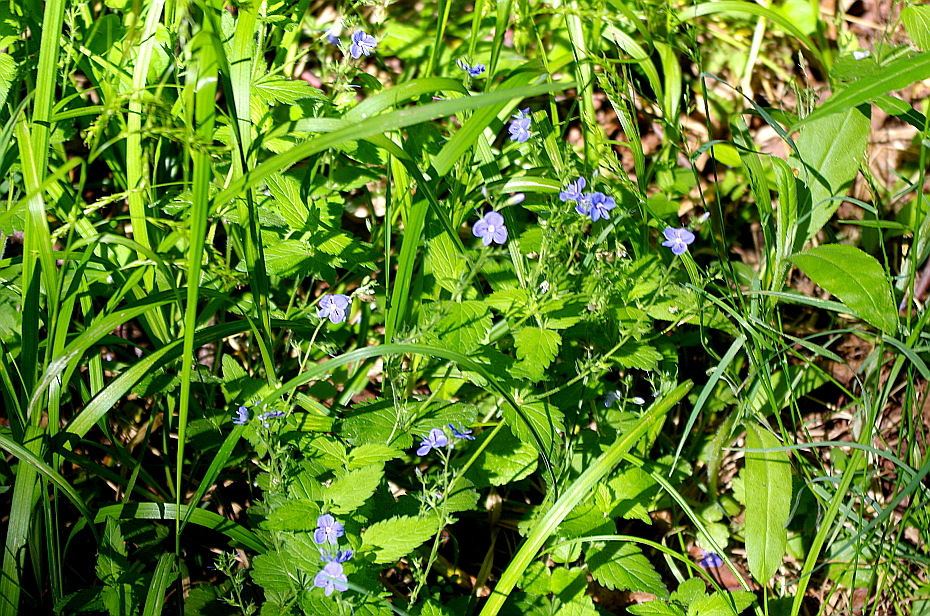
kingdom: Plantae
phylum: Tracheophyta
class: Magnoliopsida
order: Lamiales
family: Plantaginaceae
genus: Veronica
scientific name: Veronica chamaedrys
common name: Germander speedwell
